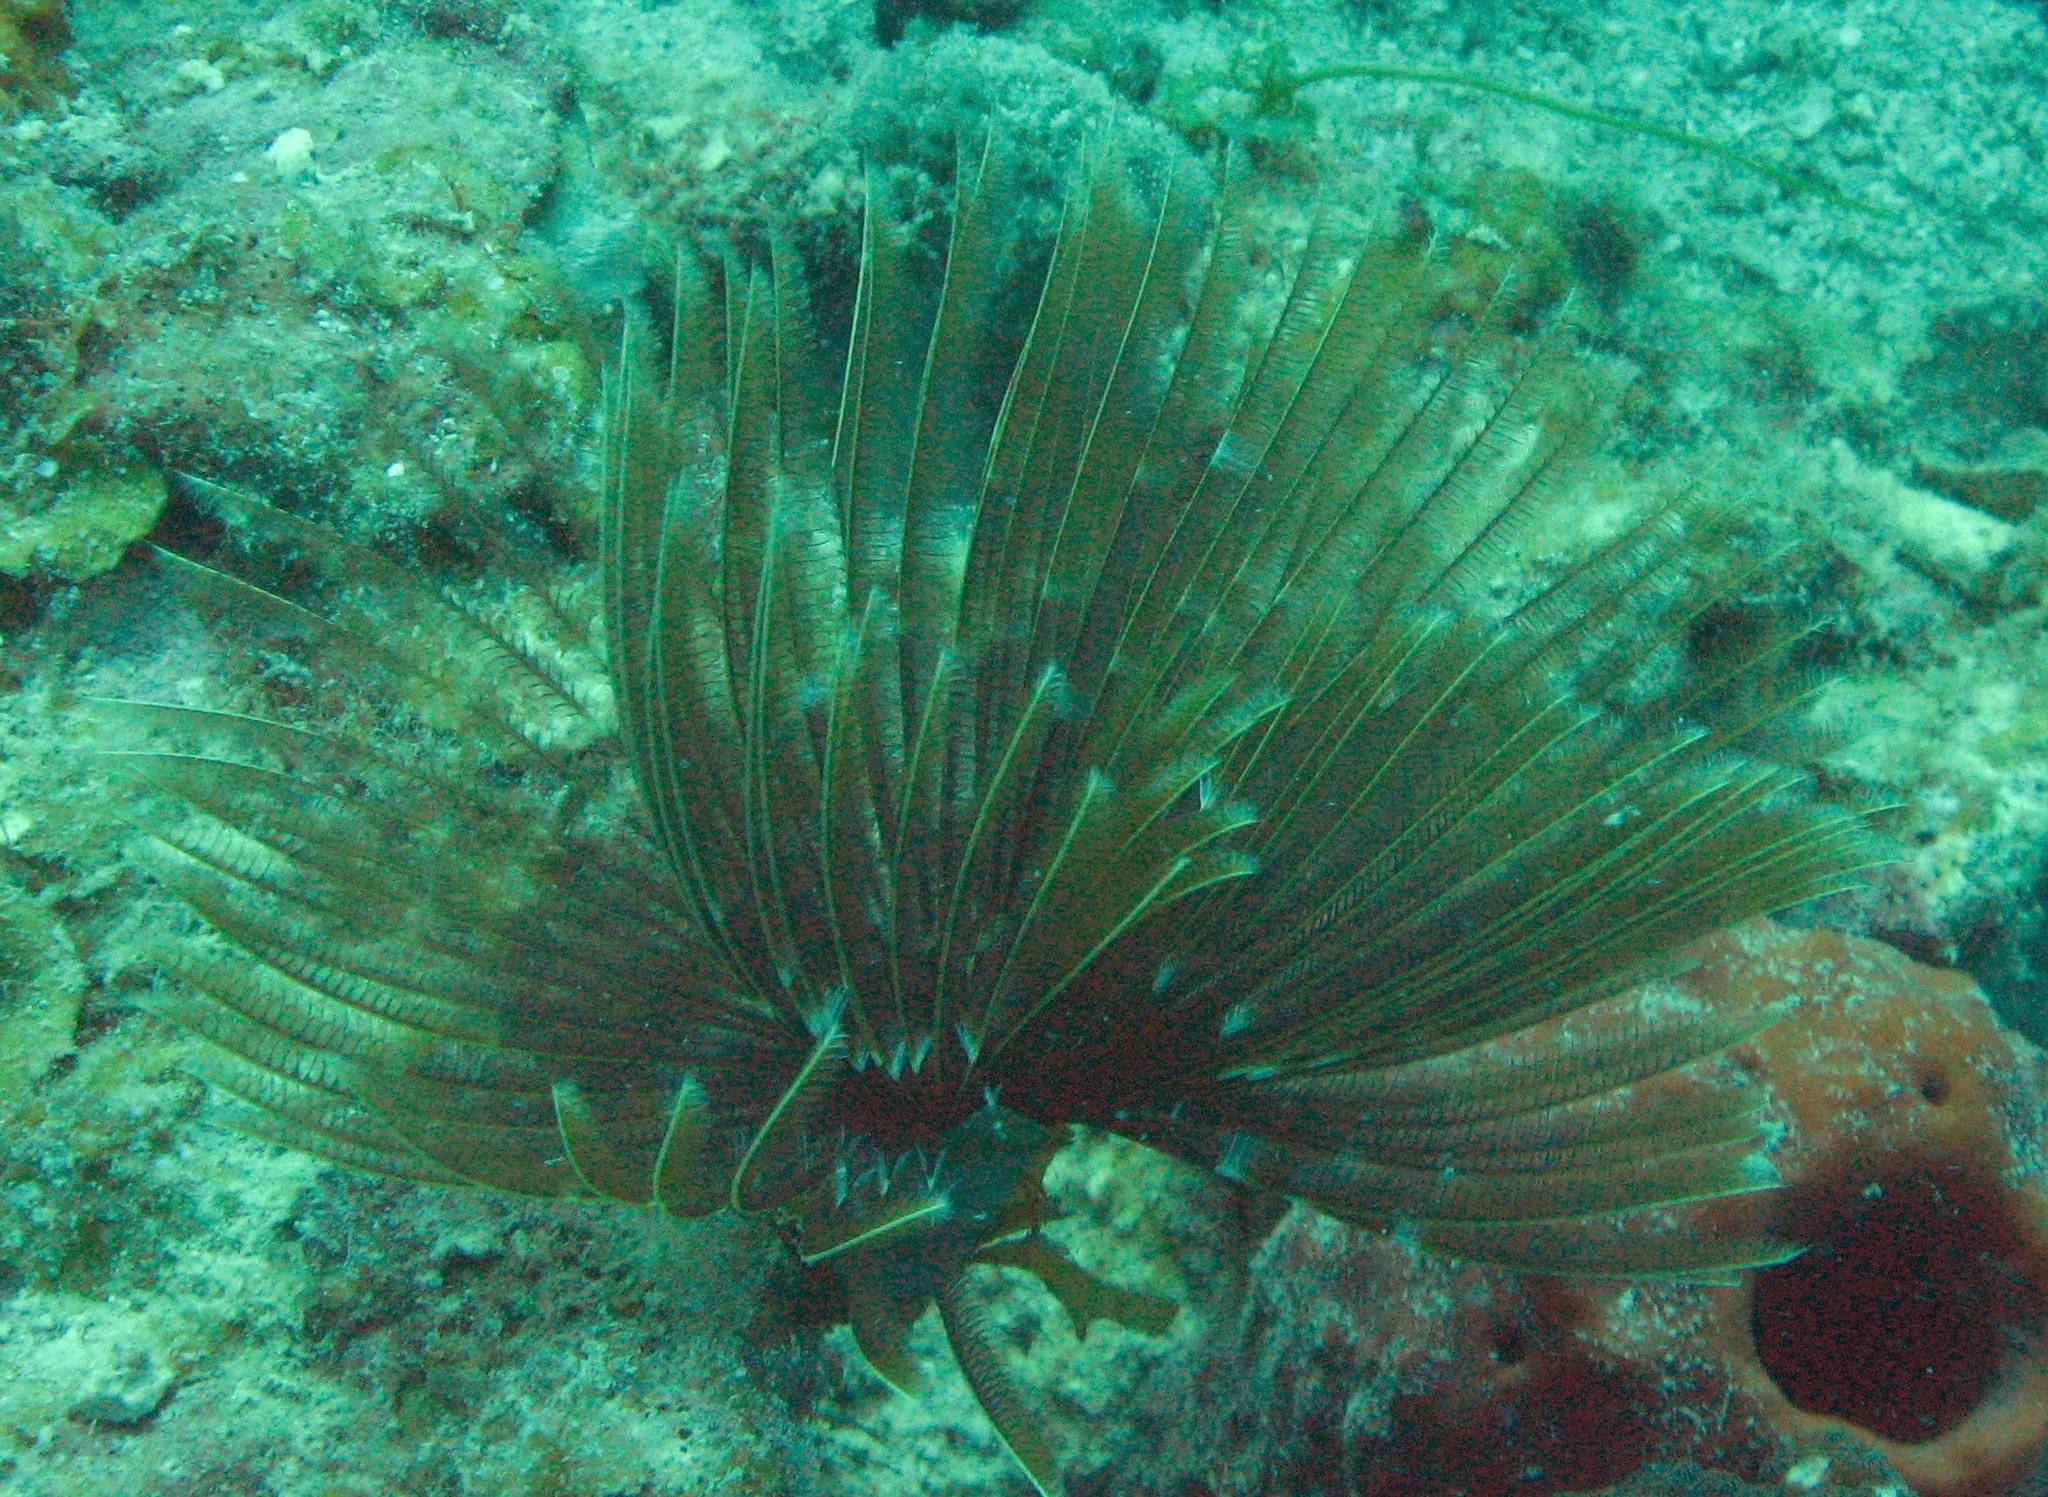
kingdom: Animalia
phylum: Annelida
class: Polychaeta
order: Sabellida
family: Sabellidae
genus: Sabellastarte
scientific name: Sabellastarte magnifica
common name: Giant feather-duster worm
